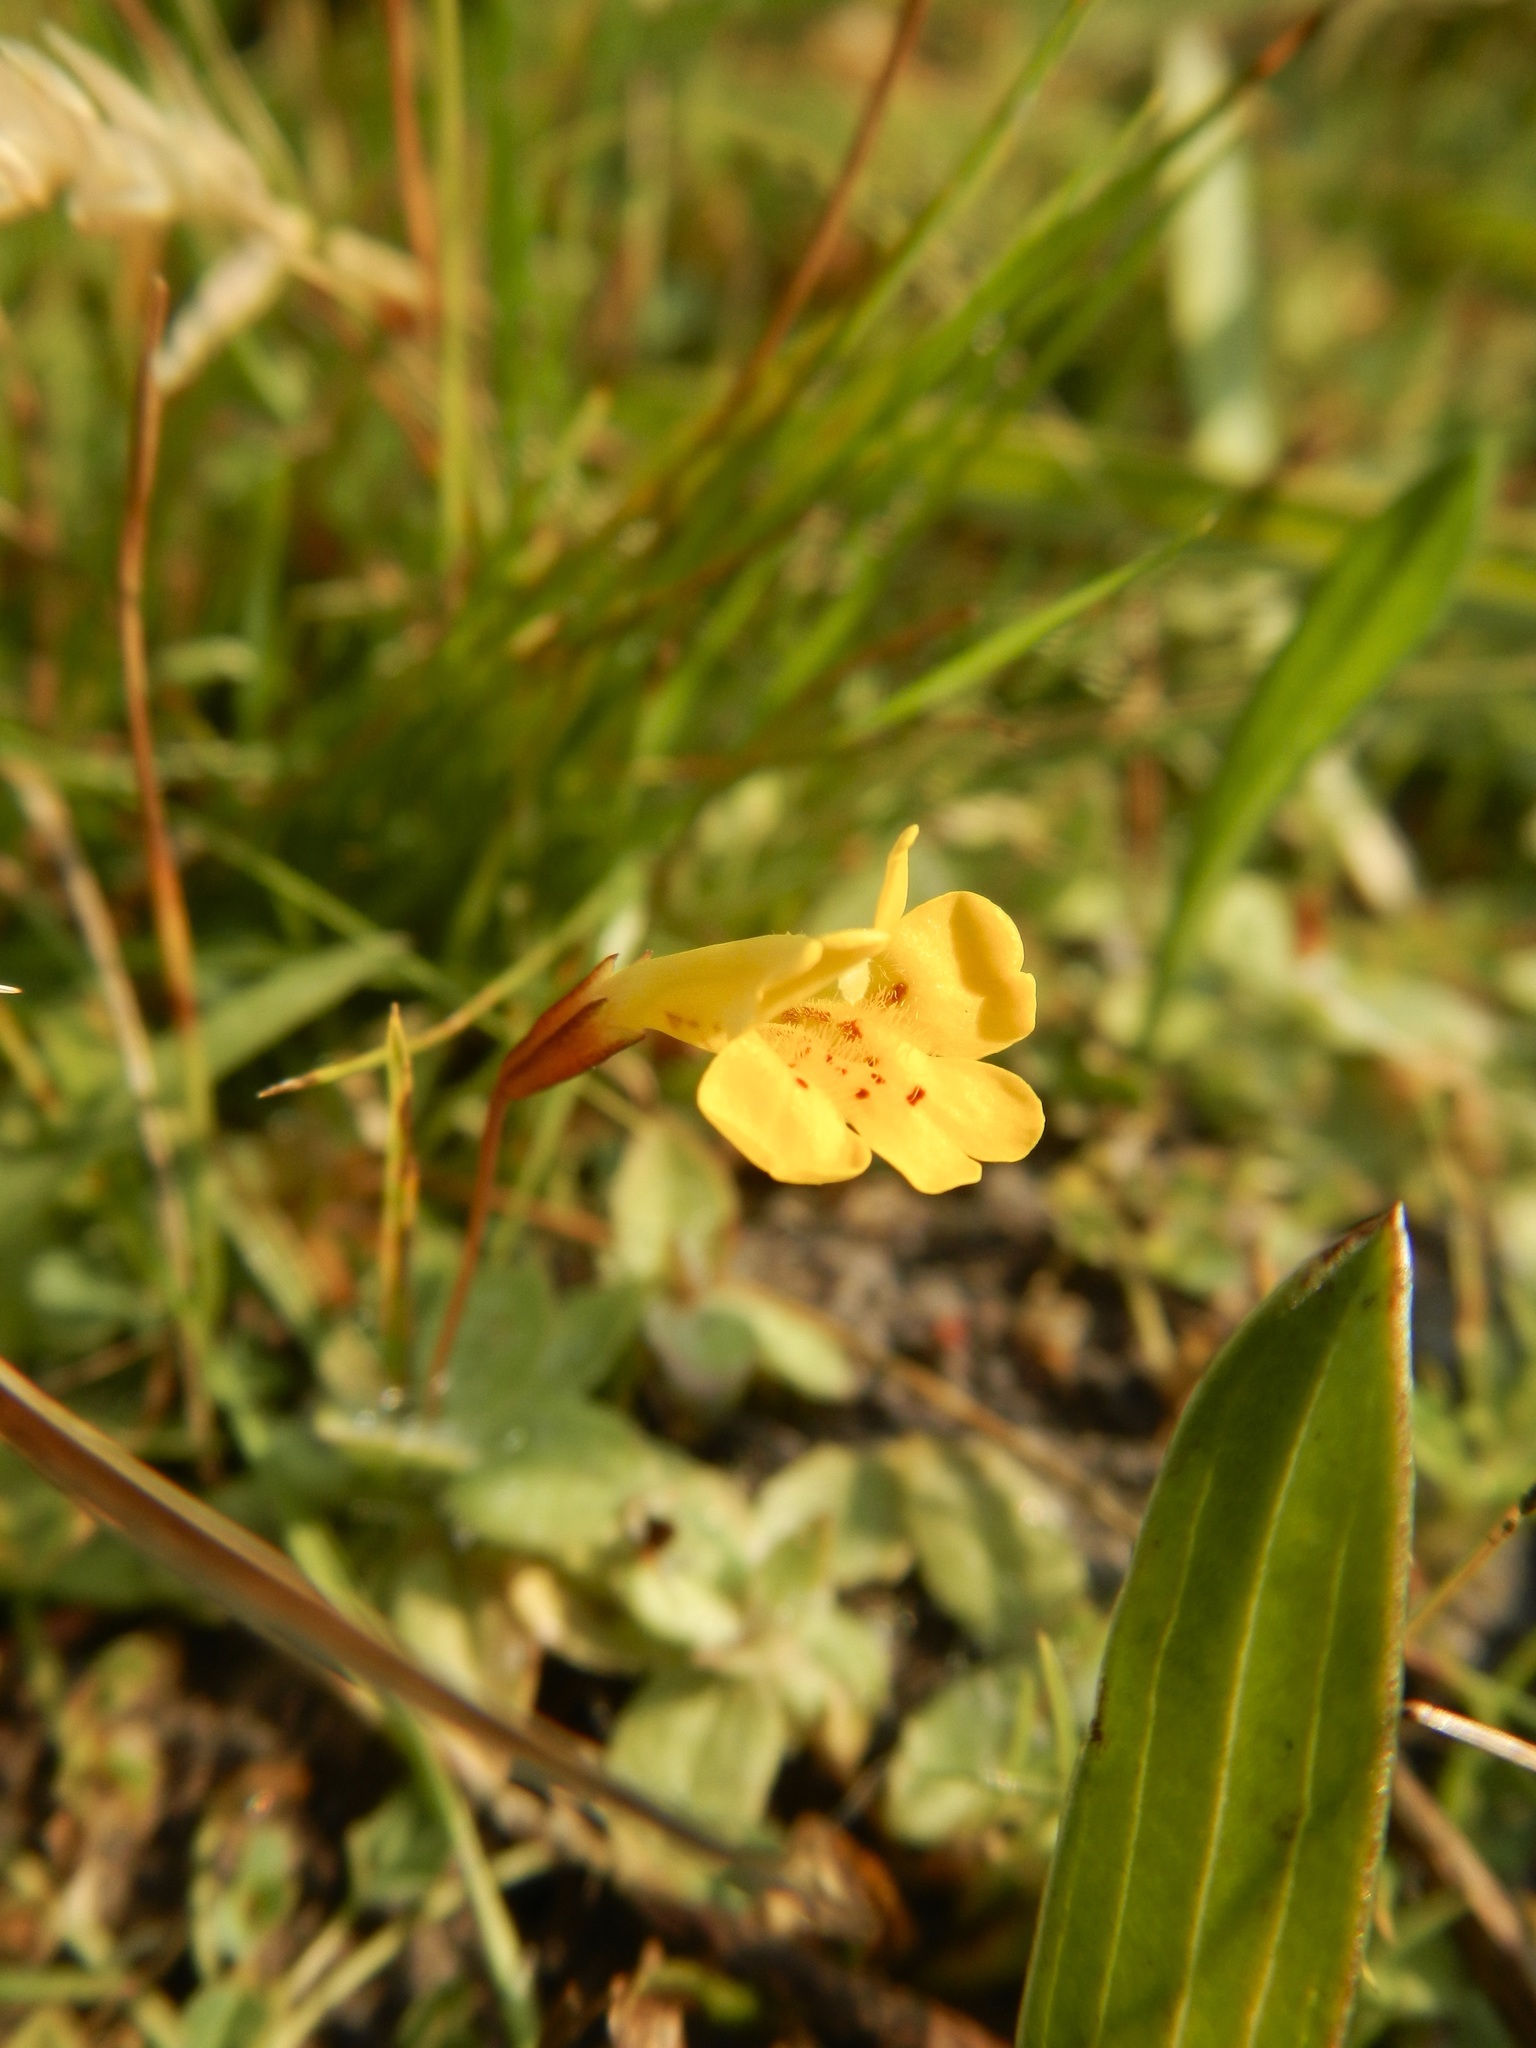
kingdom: Plantae
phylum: Tracheophyta
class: Magnoliopsida
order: Lamiales
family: Phrymaceae
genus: Erythranthe
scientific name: Erythranthe primuloides
